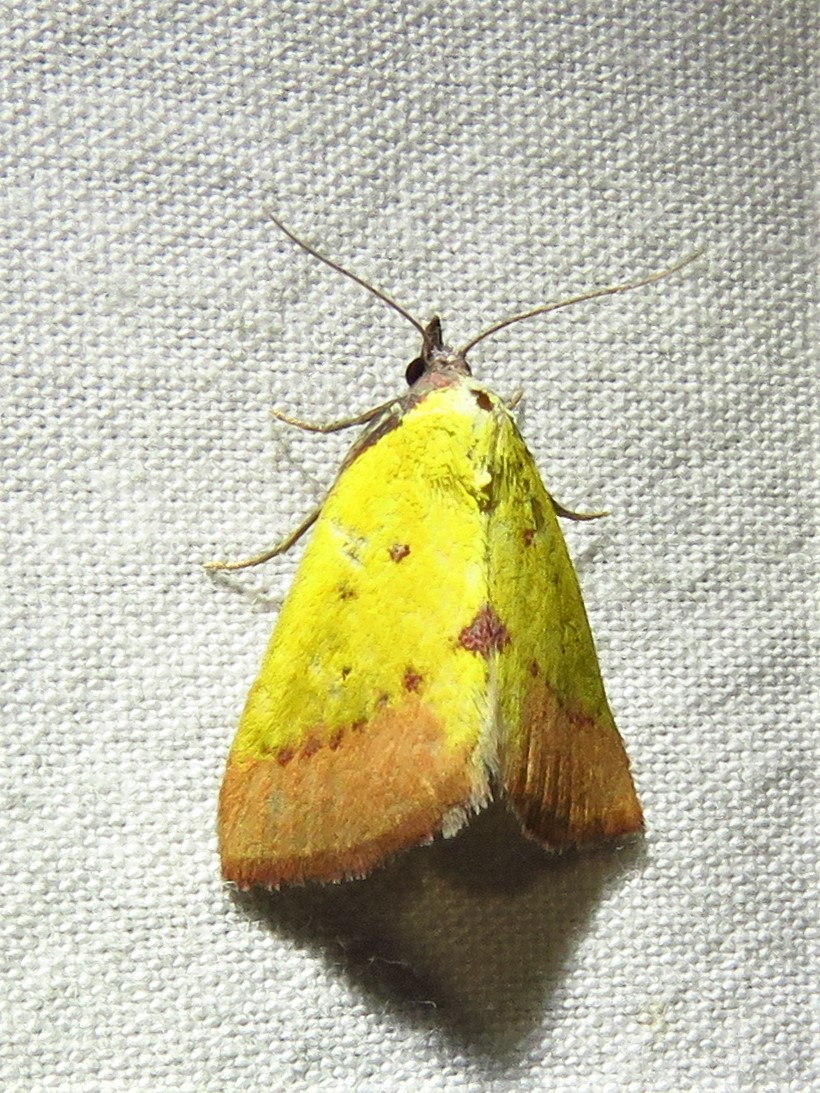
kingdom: Animalia
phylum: Arthropoda
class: Insecta
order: Lepidoptera
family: Erebidae
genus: Phytometra
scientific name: Phytometra orgiae
